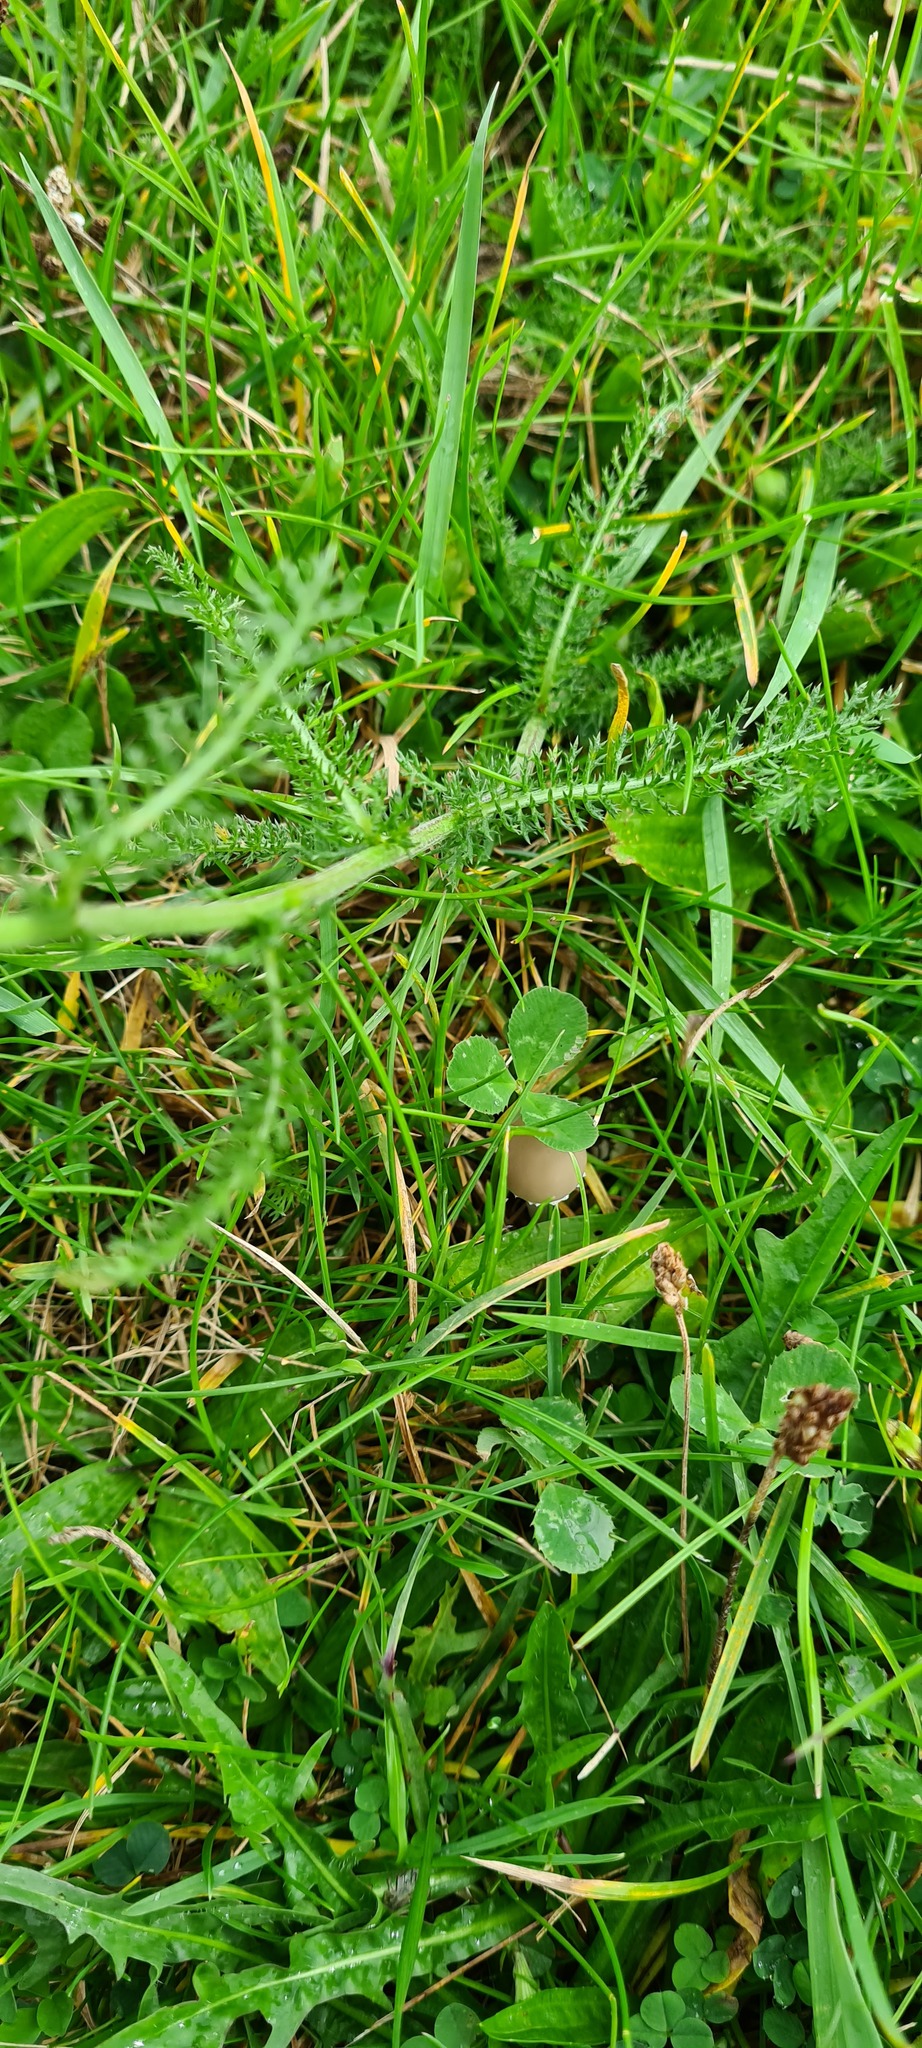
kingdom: Plantae
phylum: Tracheophyta
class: Magnoliopsida
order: Asterales
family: Asteraceae
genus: Achillea
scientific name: Achillea millefolium
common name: Yarrow
